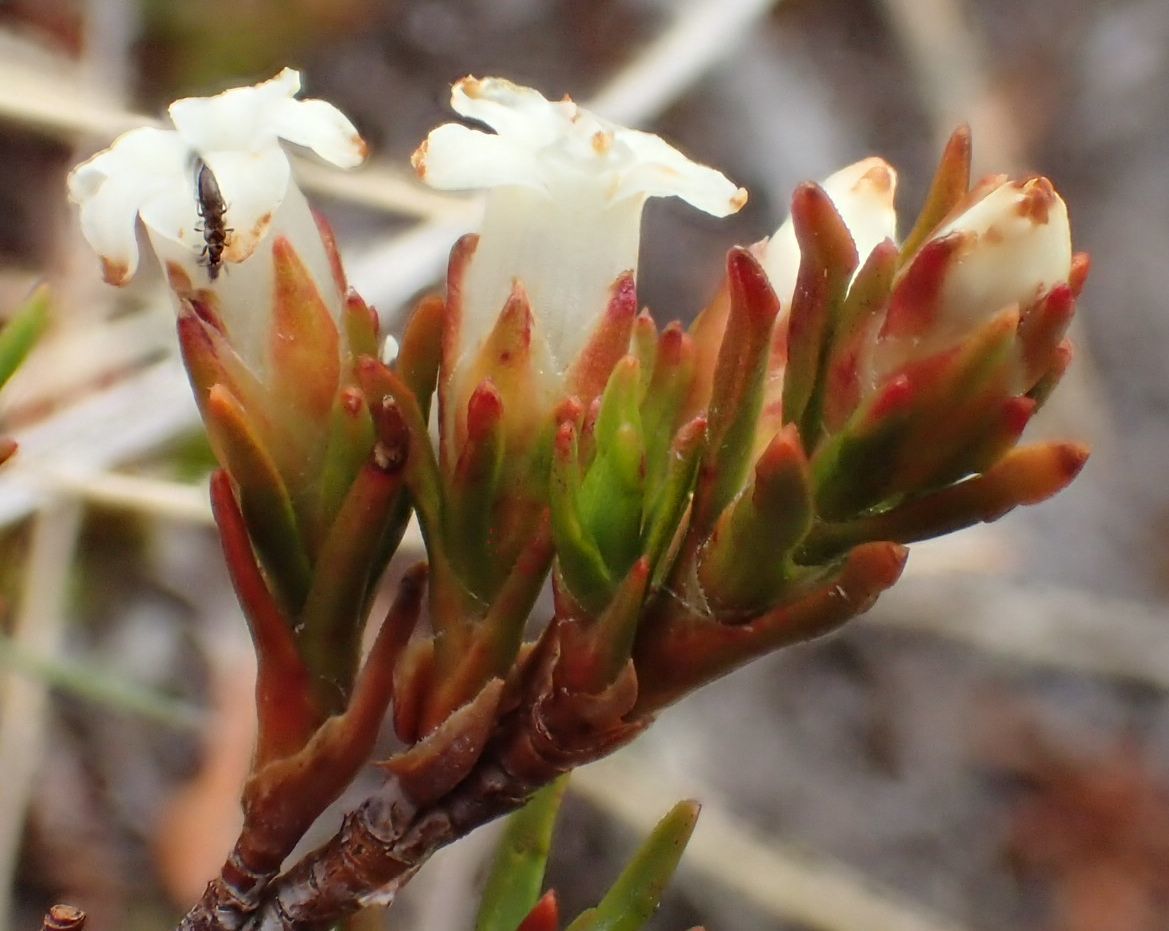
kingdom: Plantae
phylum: Tracheophyta
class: Magnoliopsida
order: Ericales
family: Ericaceae
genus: Dracophyllum
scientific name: Dracophyllum pronum
